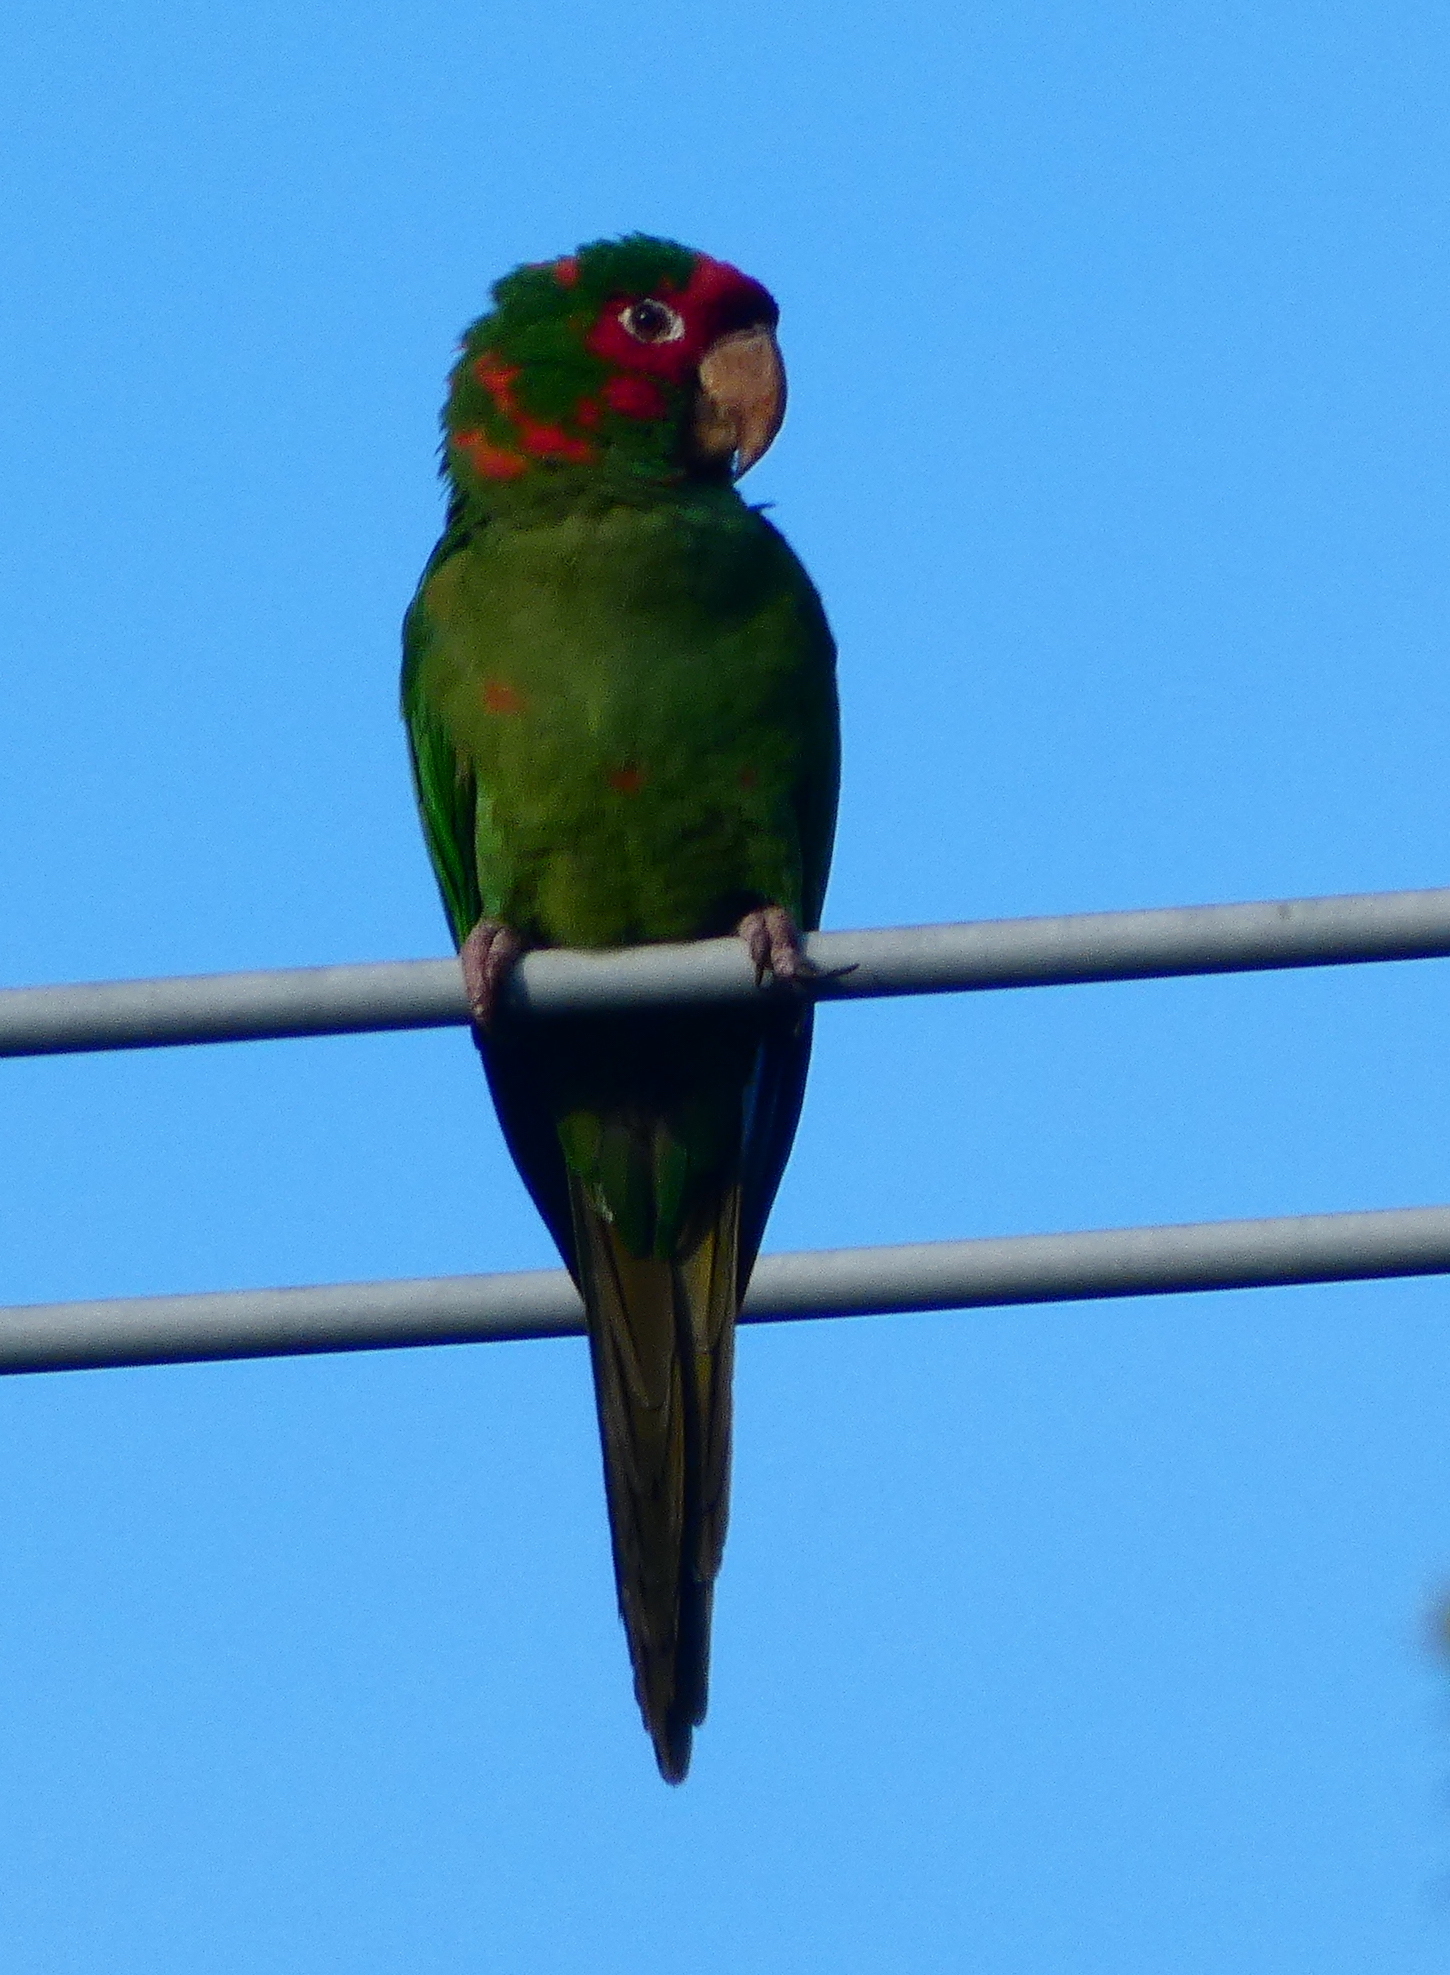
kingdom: Animalia
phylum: Chordata
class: Aves
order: Psittaciformes
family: Psittacidae
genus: Aratinga
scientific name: Aratinga mitrata
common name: Mitred parakeet
